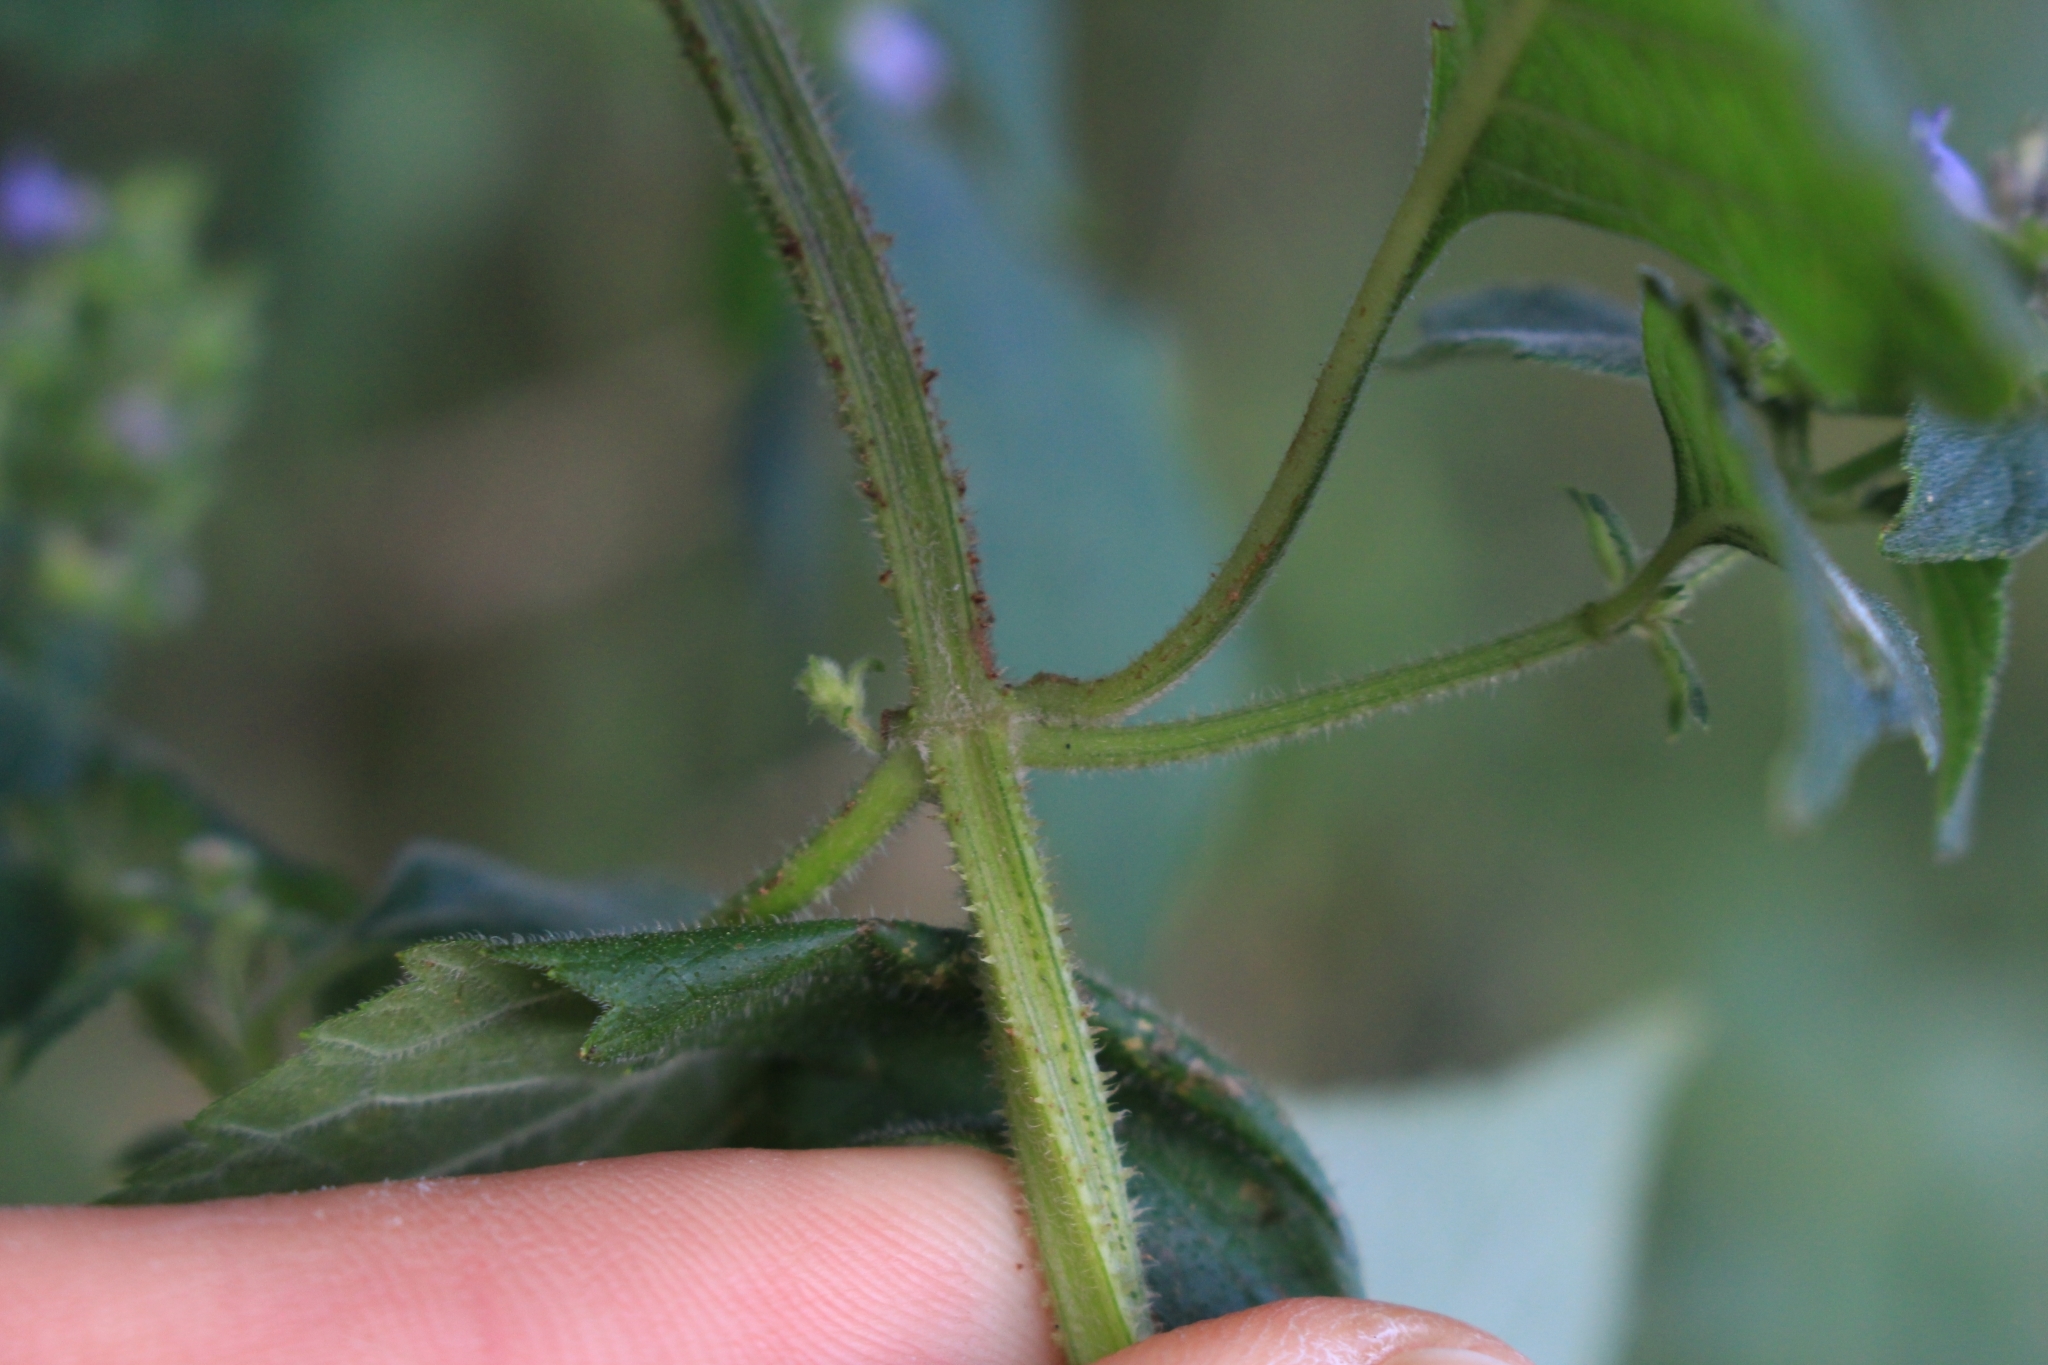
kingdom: Plantae
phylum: Tracheophyta
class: Magnoliopsida
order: Lamiales
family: Lamiaceae
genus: Cantinoa
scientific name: Cantinoa mutabilis
